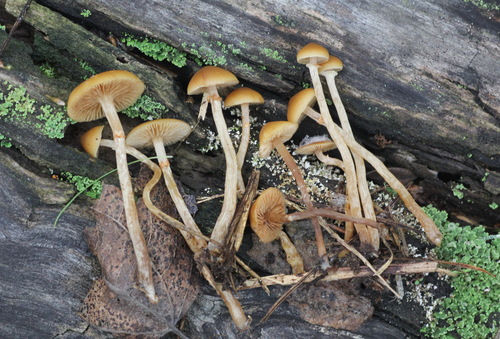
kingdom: Fungi
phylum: Basidiomycota
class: Agaricomycetes
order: Agaricales
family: Hymenogastraceae
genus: Galerina
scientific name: Galerina pseudomycenopsis
